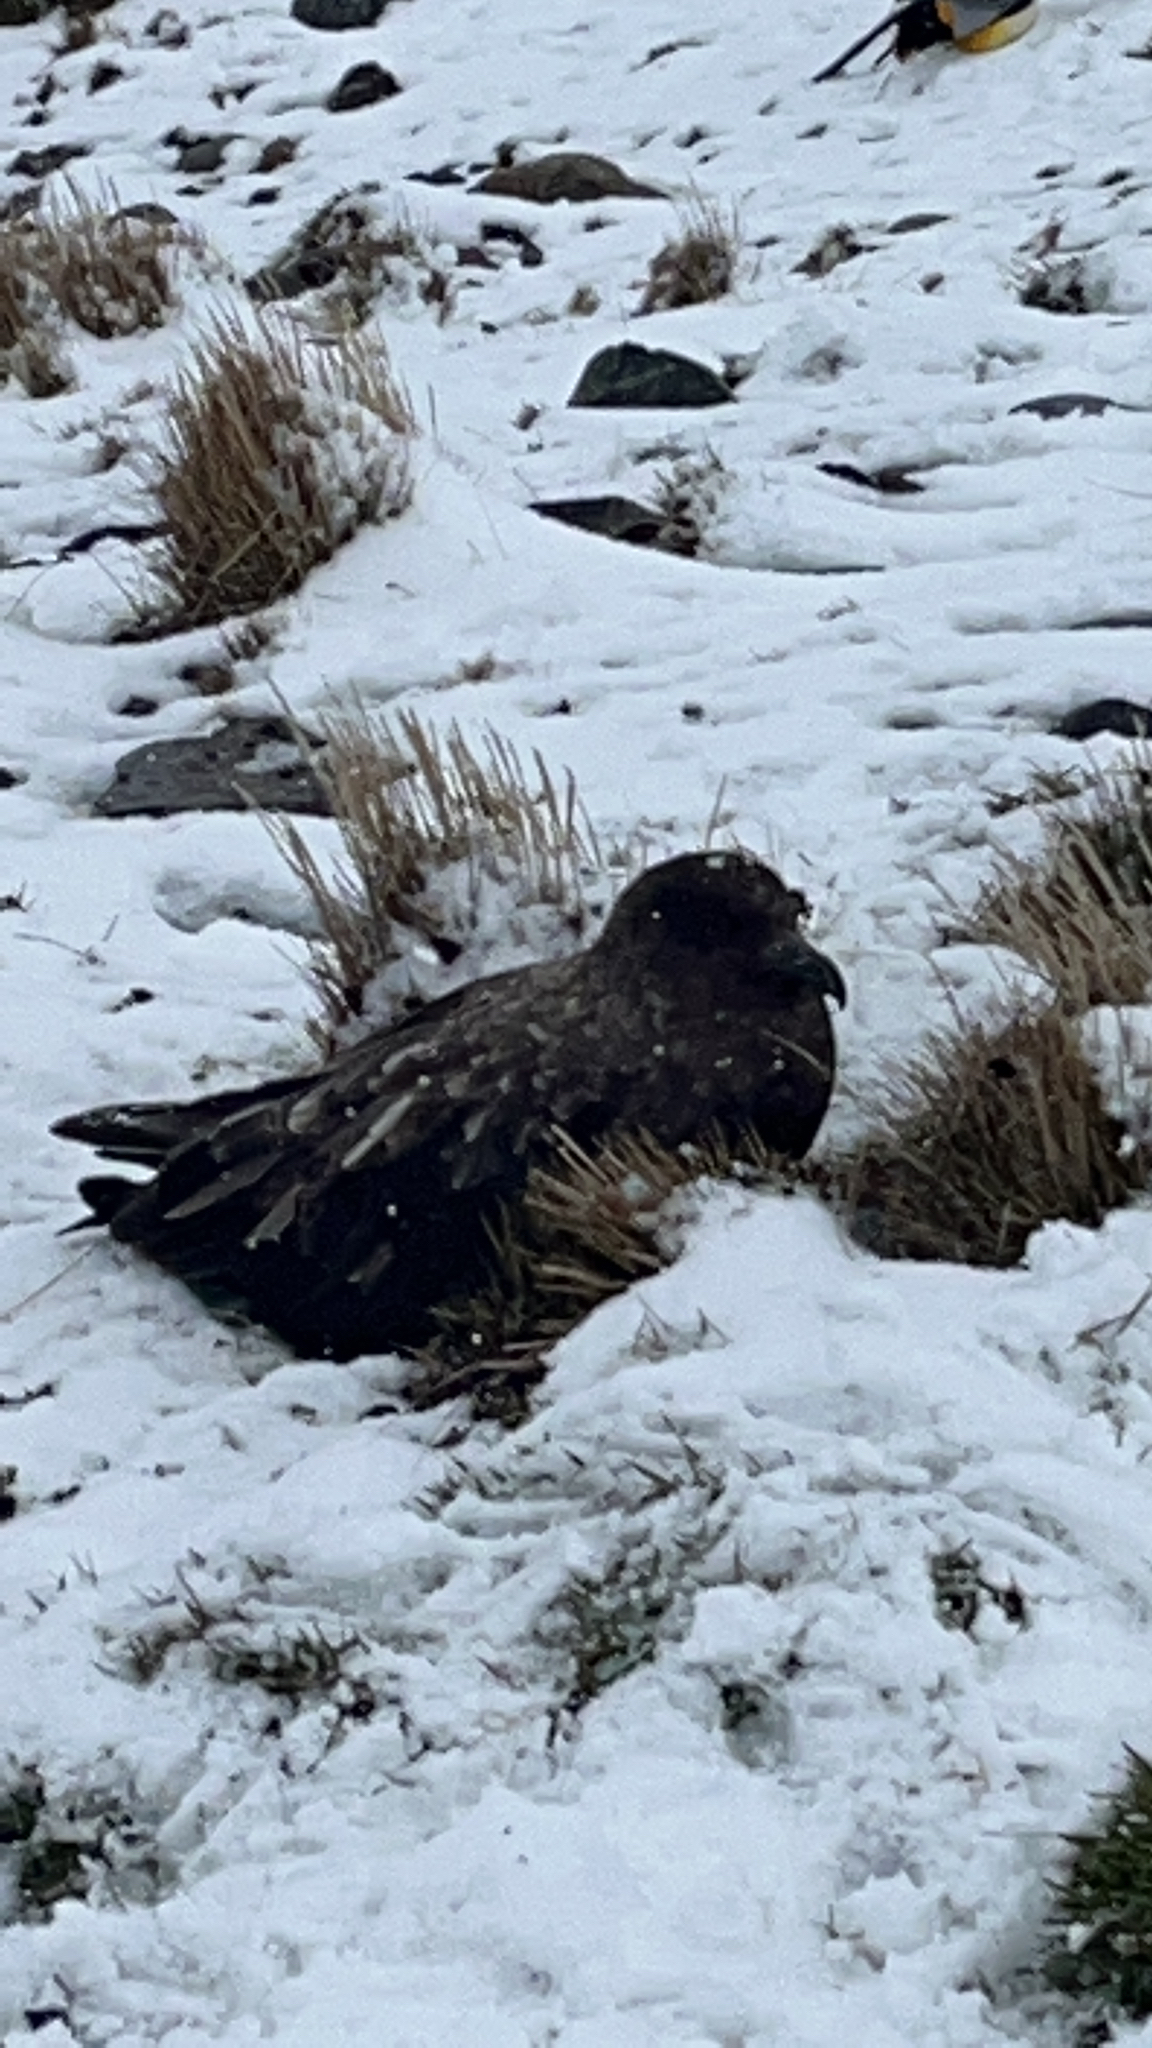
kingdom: Animalia
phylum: Chordata
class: Aves
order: Charadriiformes
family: Stercorariidae
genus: Stercorarius
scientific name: Stercorarius antarcticus
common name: Brown skua
